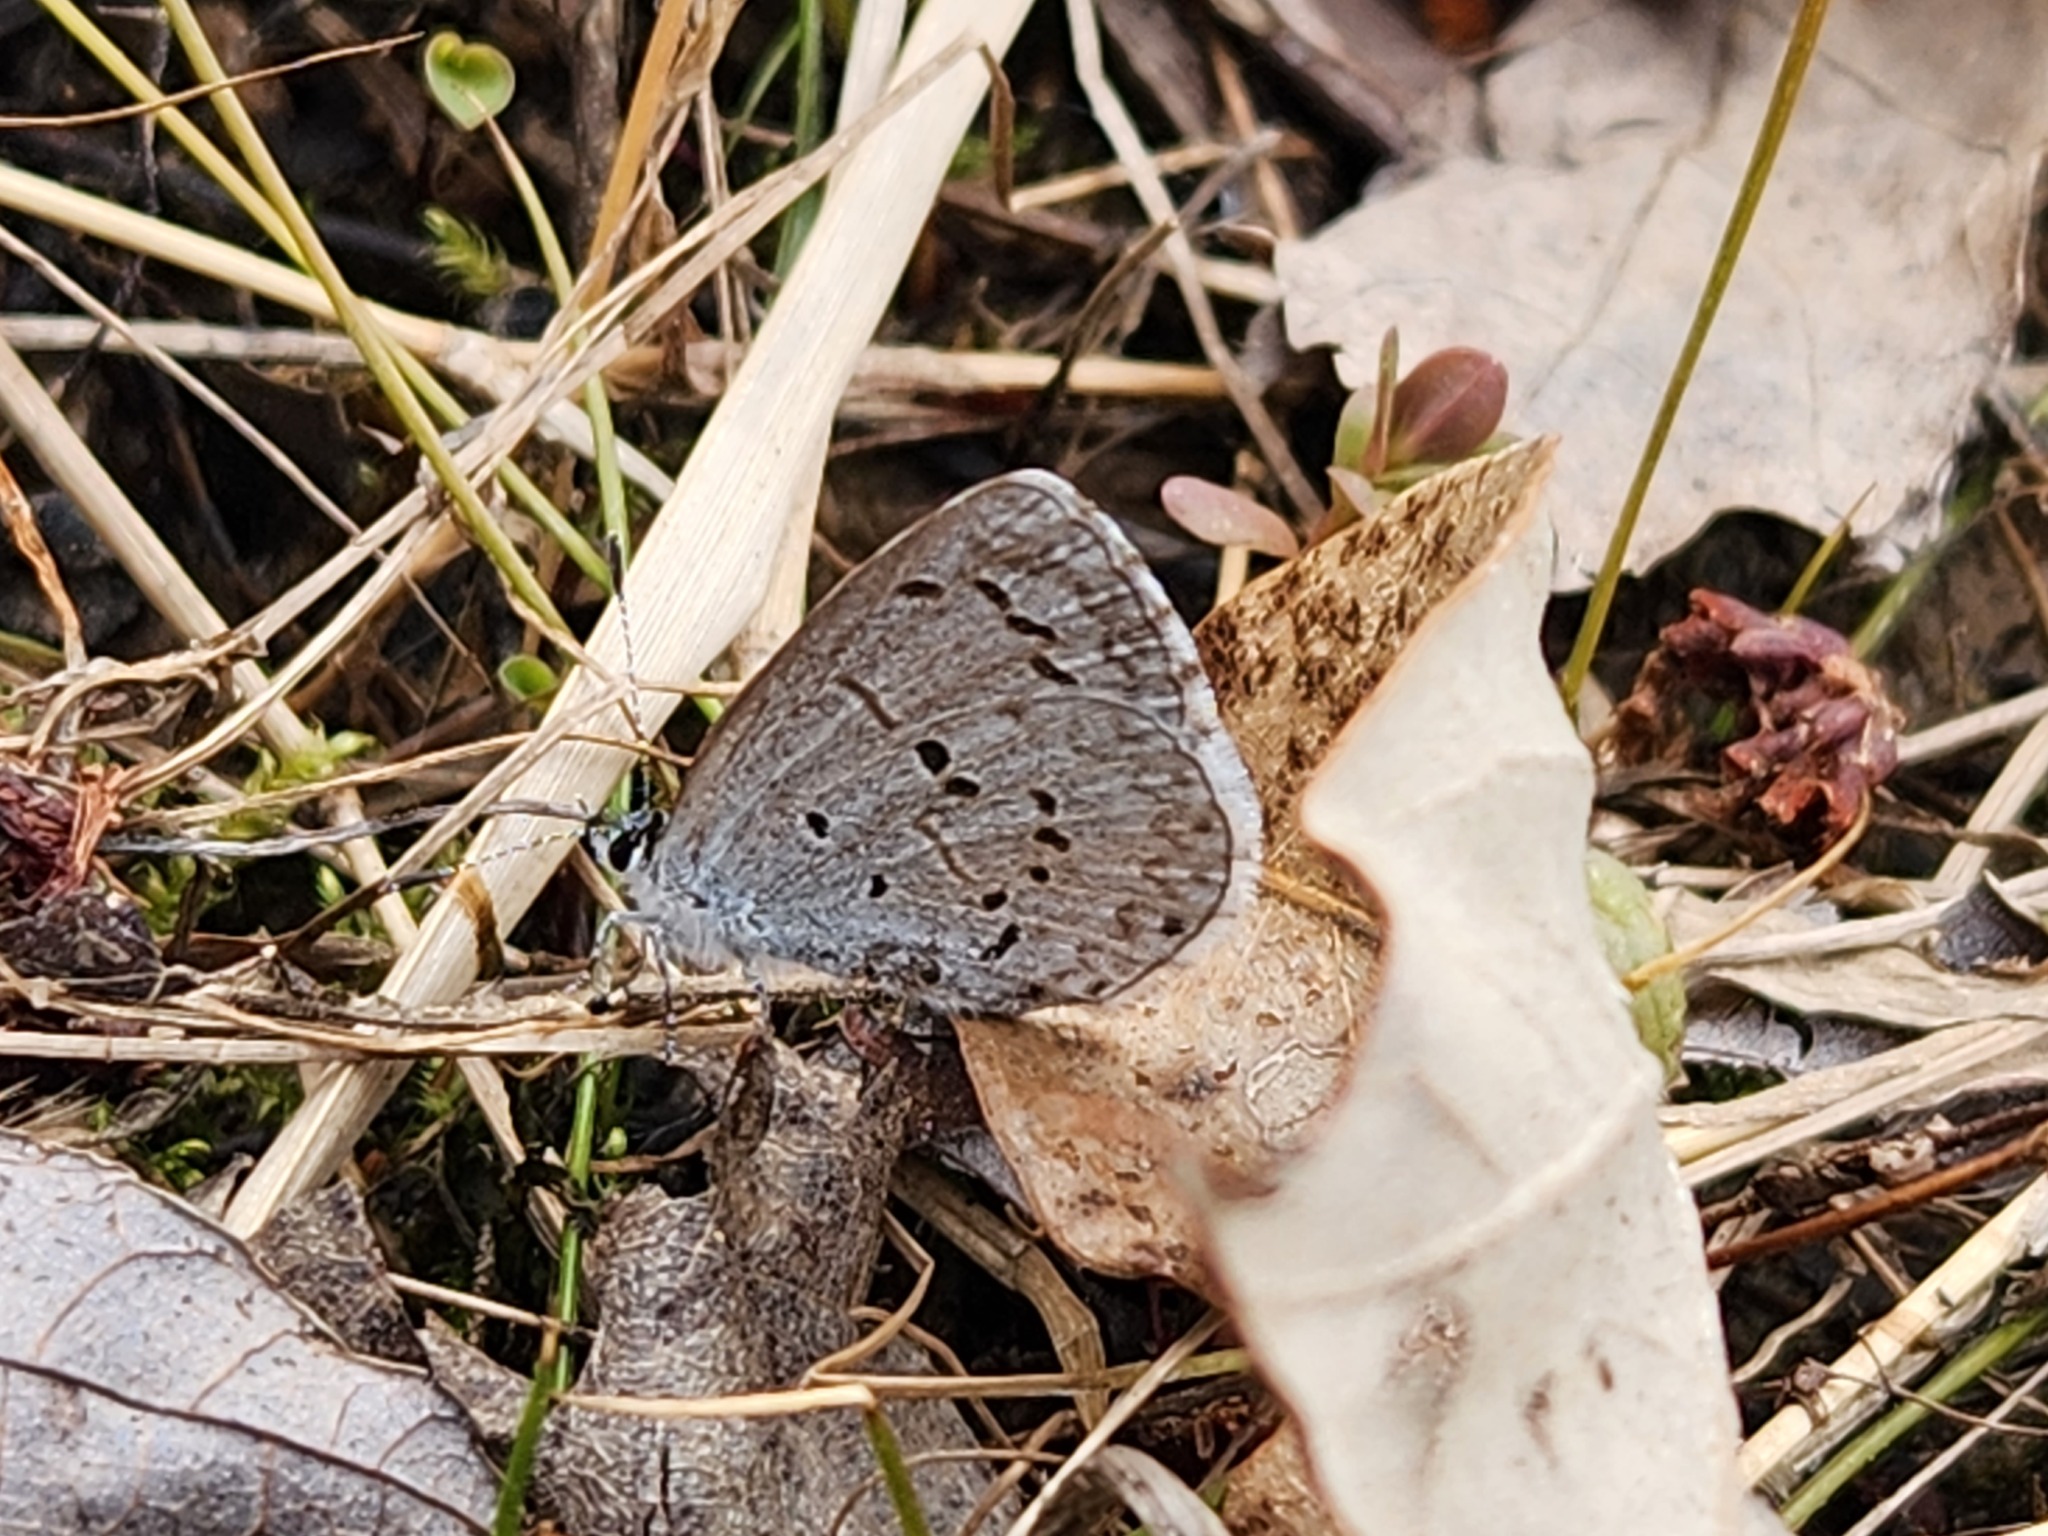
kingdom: Animalia
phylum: Arthropoda
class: Insecta
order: Lepidoptera
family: Lycaenidae
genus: Celastrina
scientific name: Celastrina ladon
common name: Spring azure
